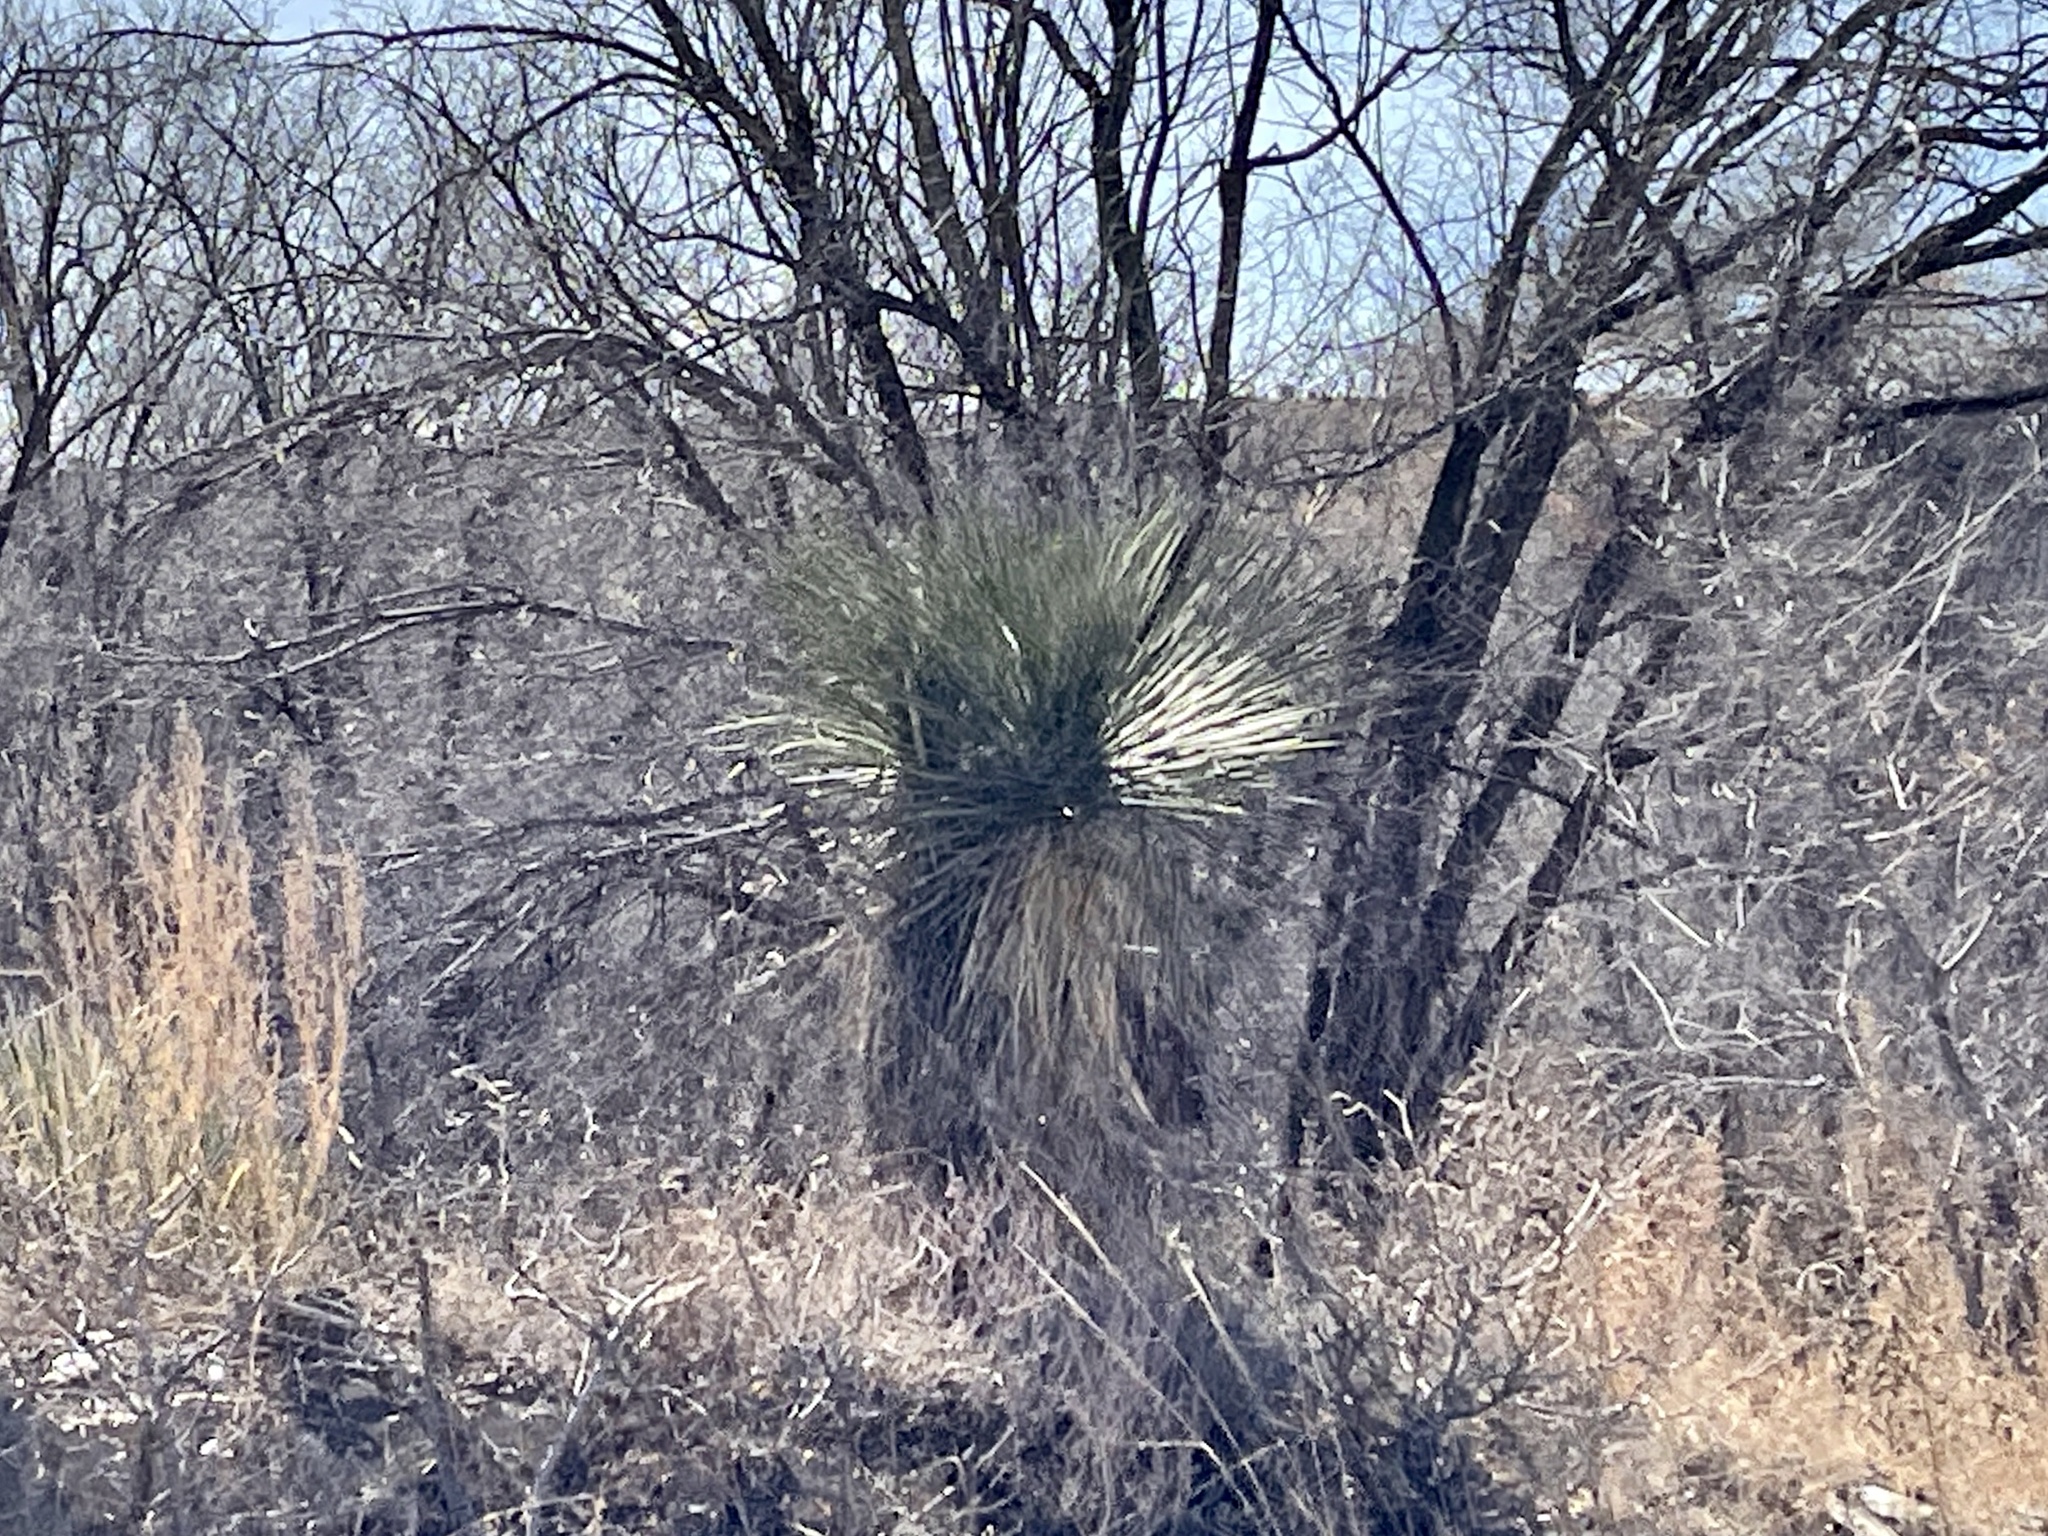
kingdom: Plantae
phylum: Tracheophyta
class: Liliopsida
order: Asparagales
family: Asparagaceae
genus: Yucca
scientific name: Yucca elata
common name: Palmella
